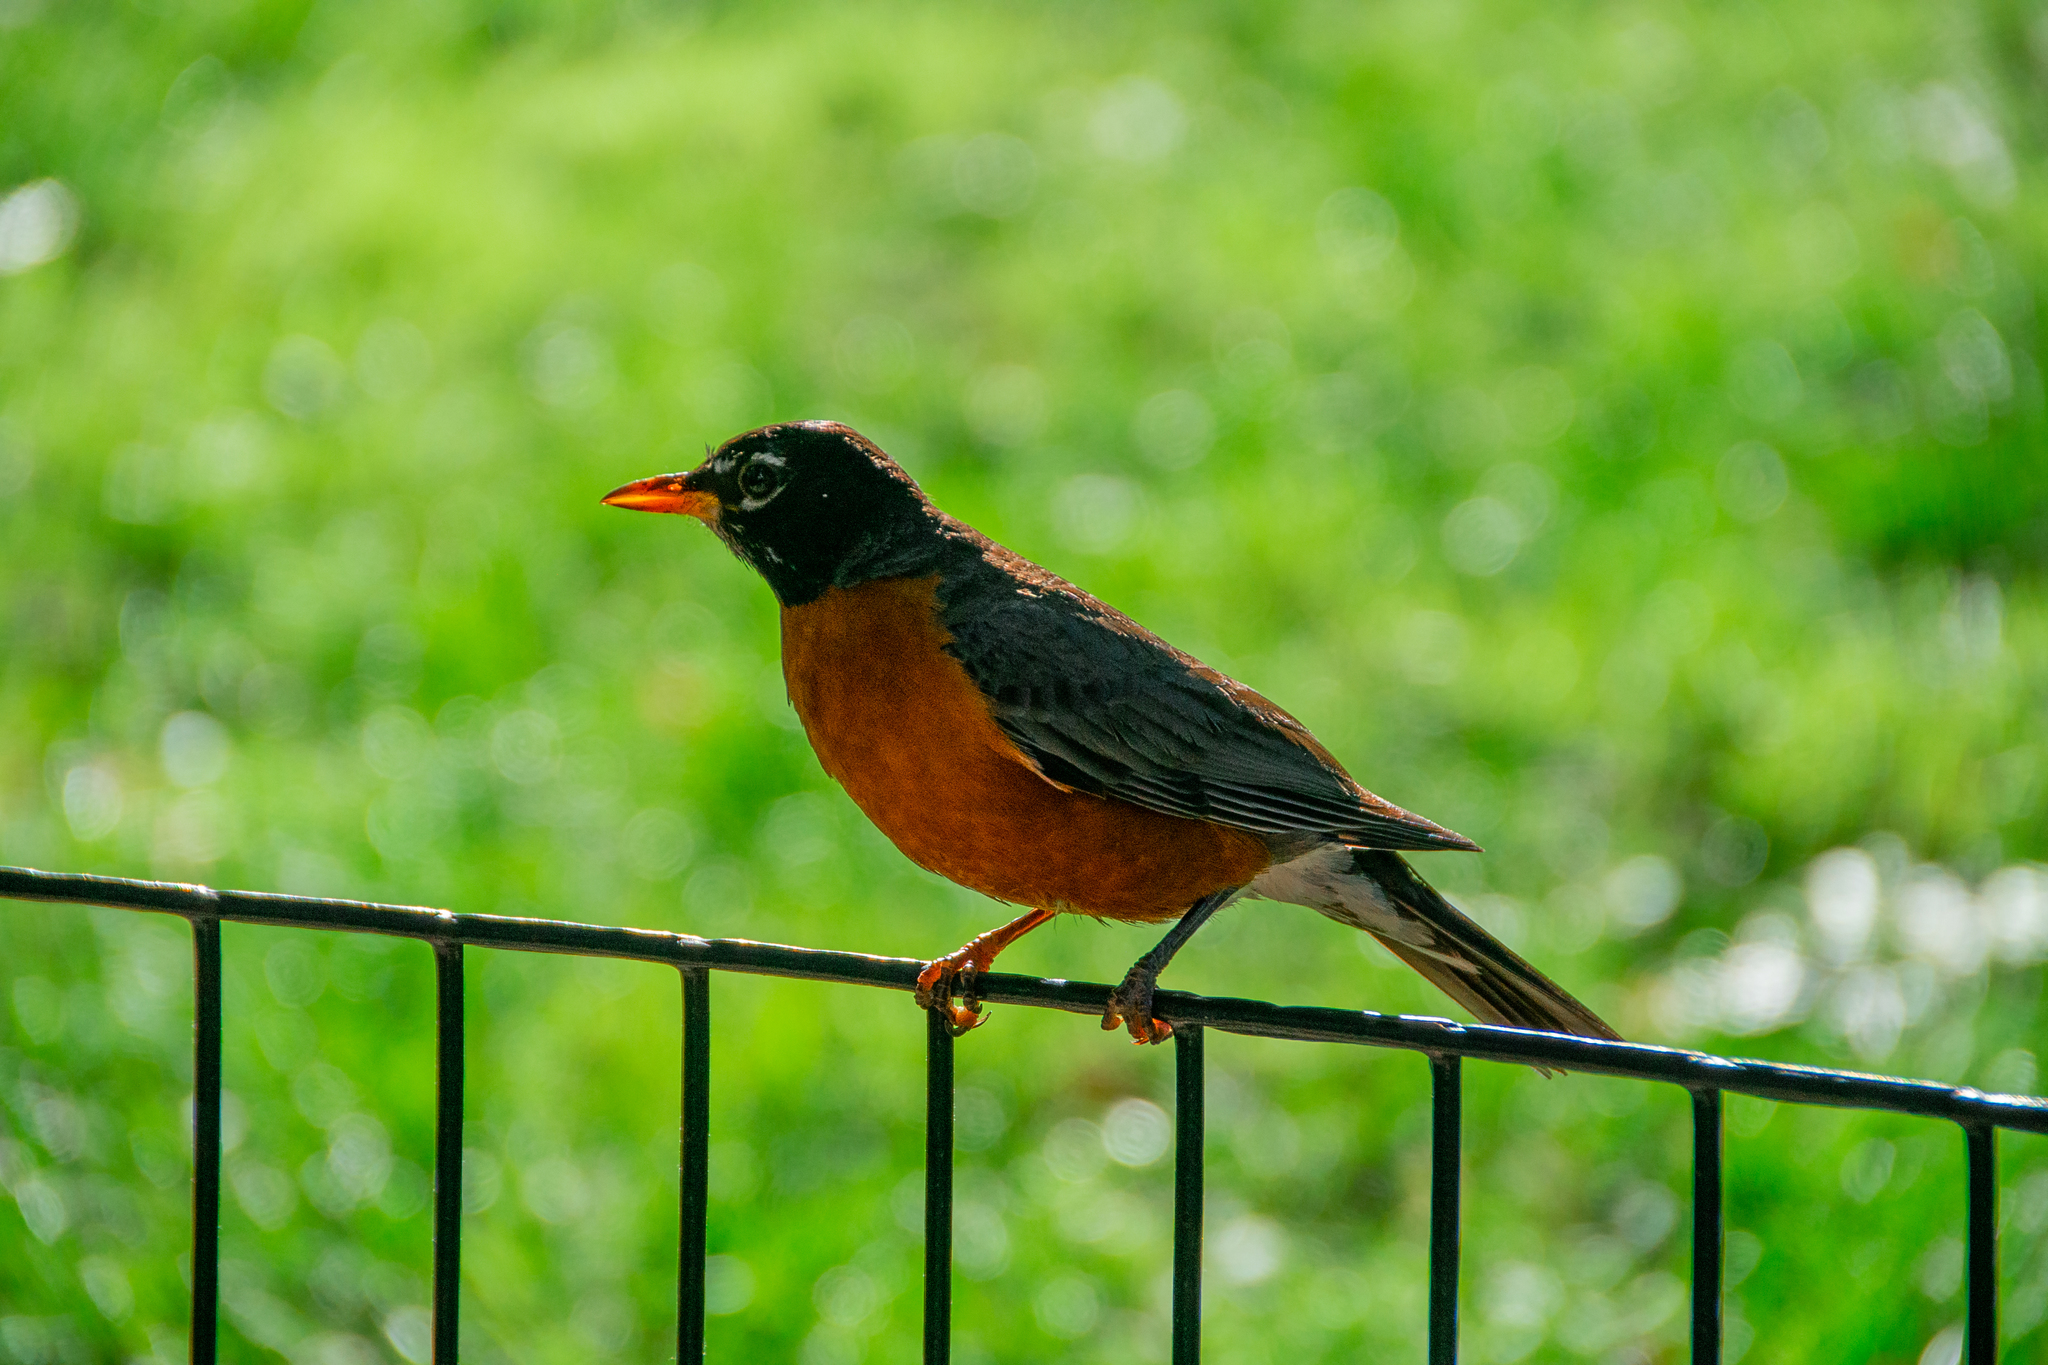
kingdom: Animalia
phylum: Chordata
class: Aves
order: Passeriformes
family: Turdidae
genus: Turdus
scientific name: Turdus migratorius
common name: American robin
